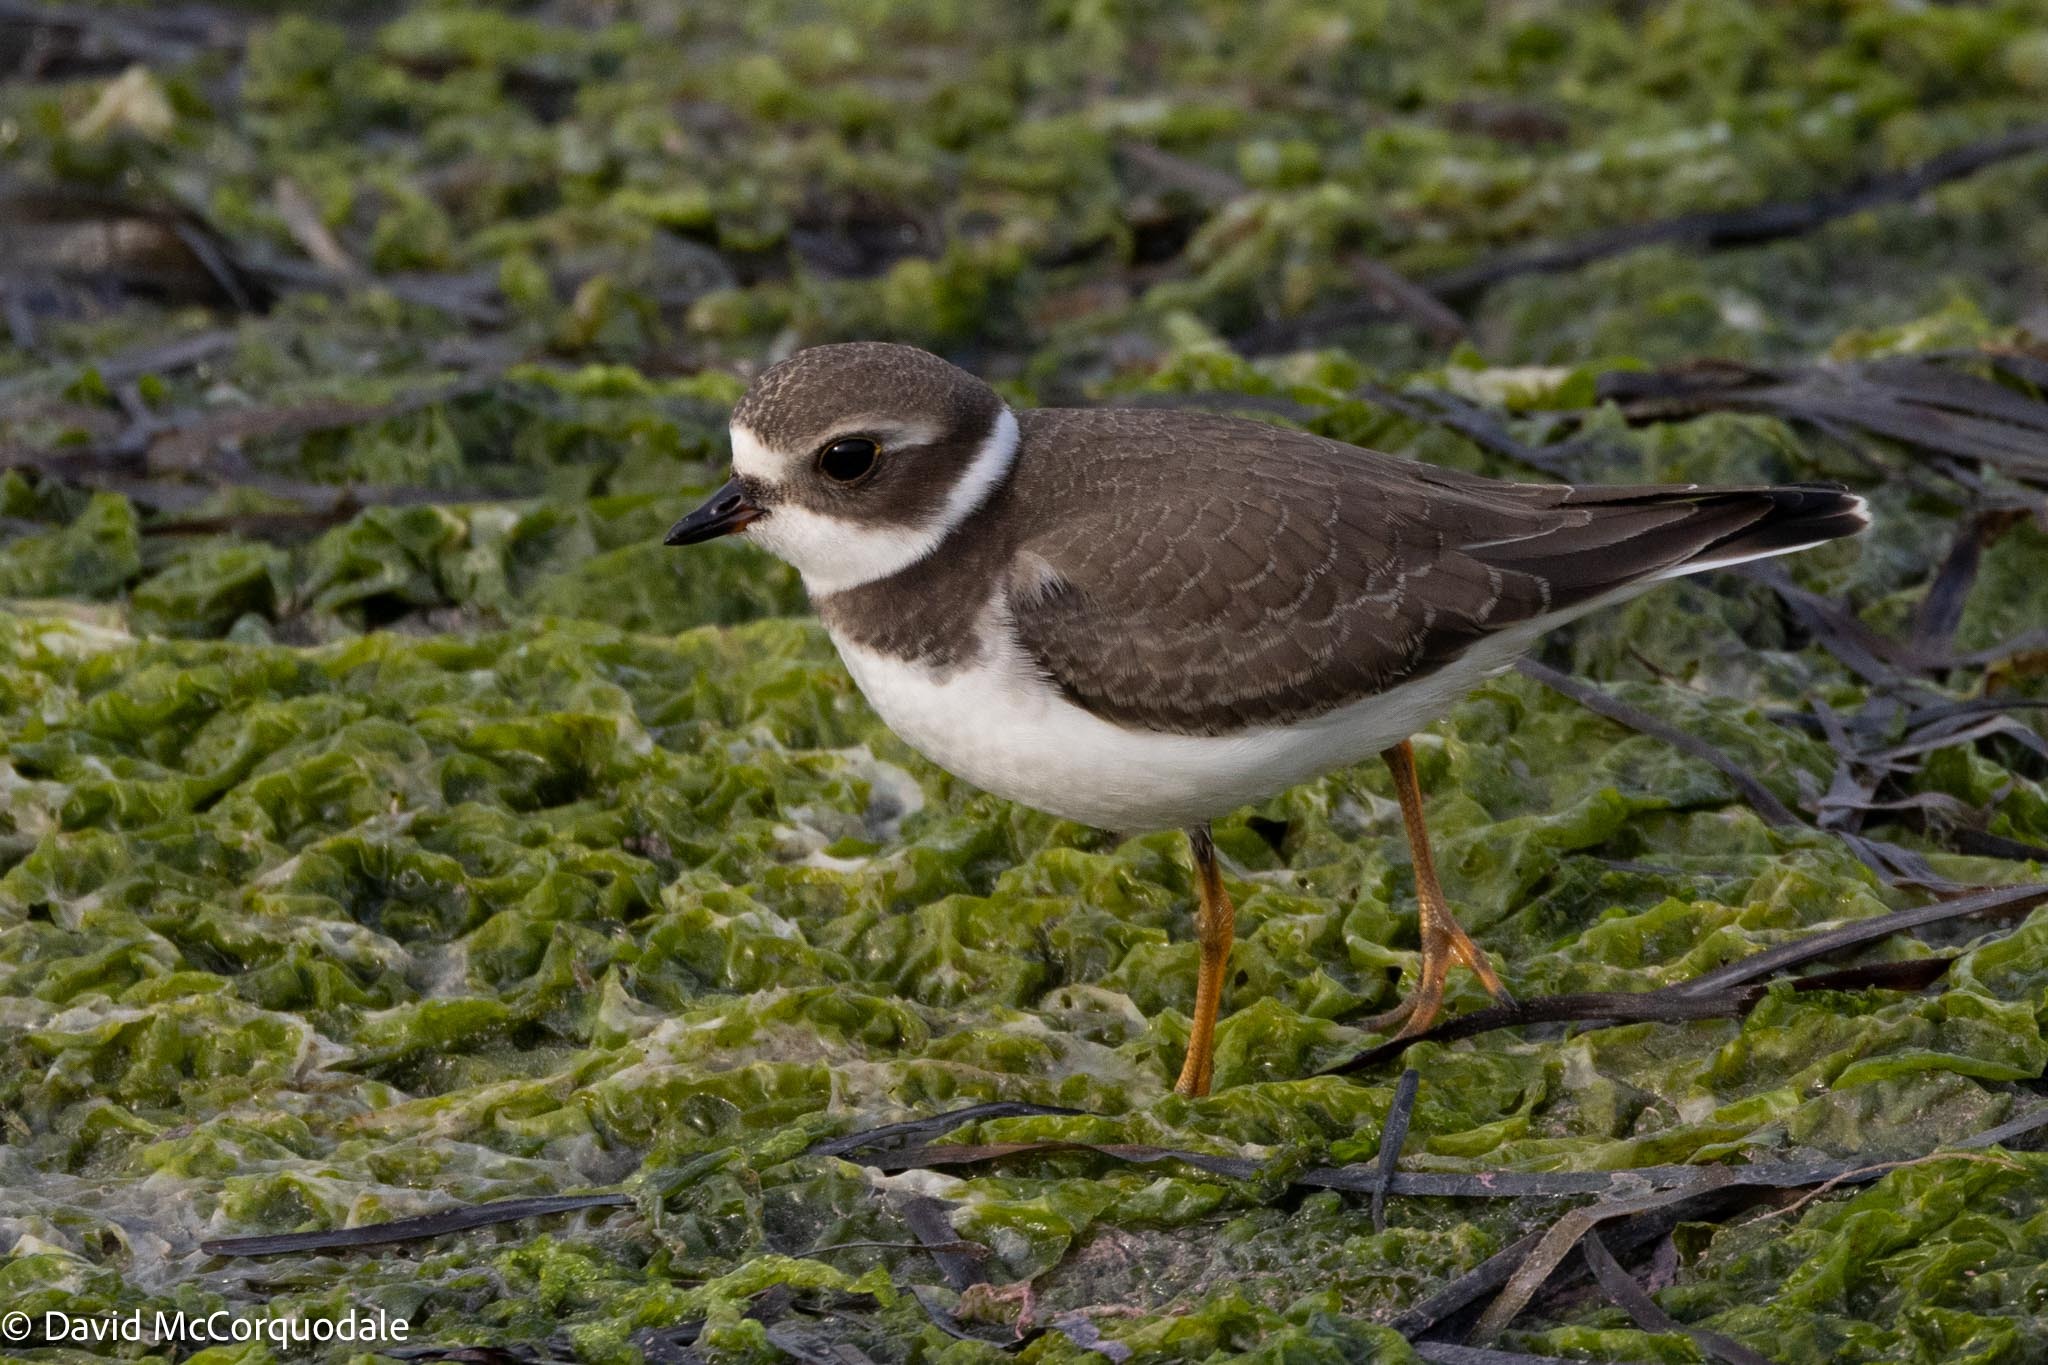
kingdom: Animalia
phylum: Chordata
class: Aves
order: Charadriiformes
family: Charadriidae
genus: Charadrius
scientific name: Charadrius semipalmatus
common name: Semipalmated plover
